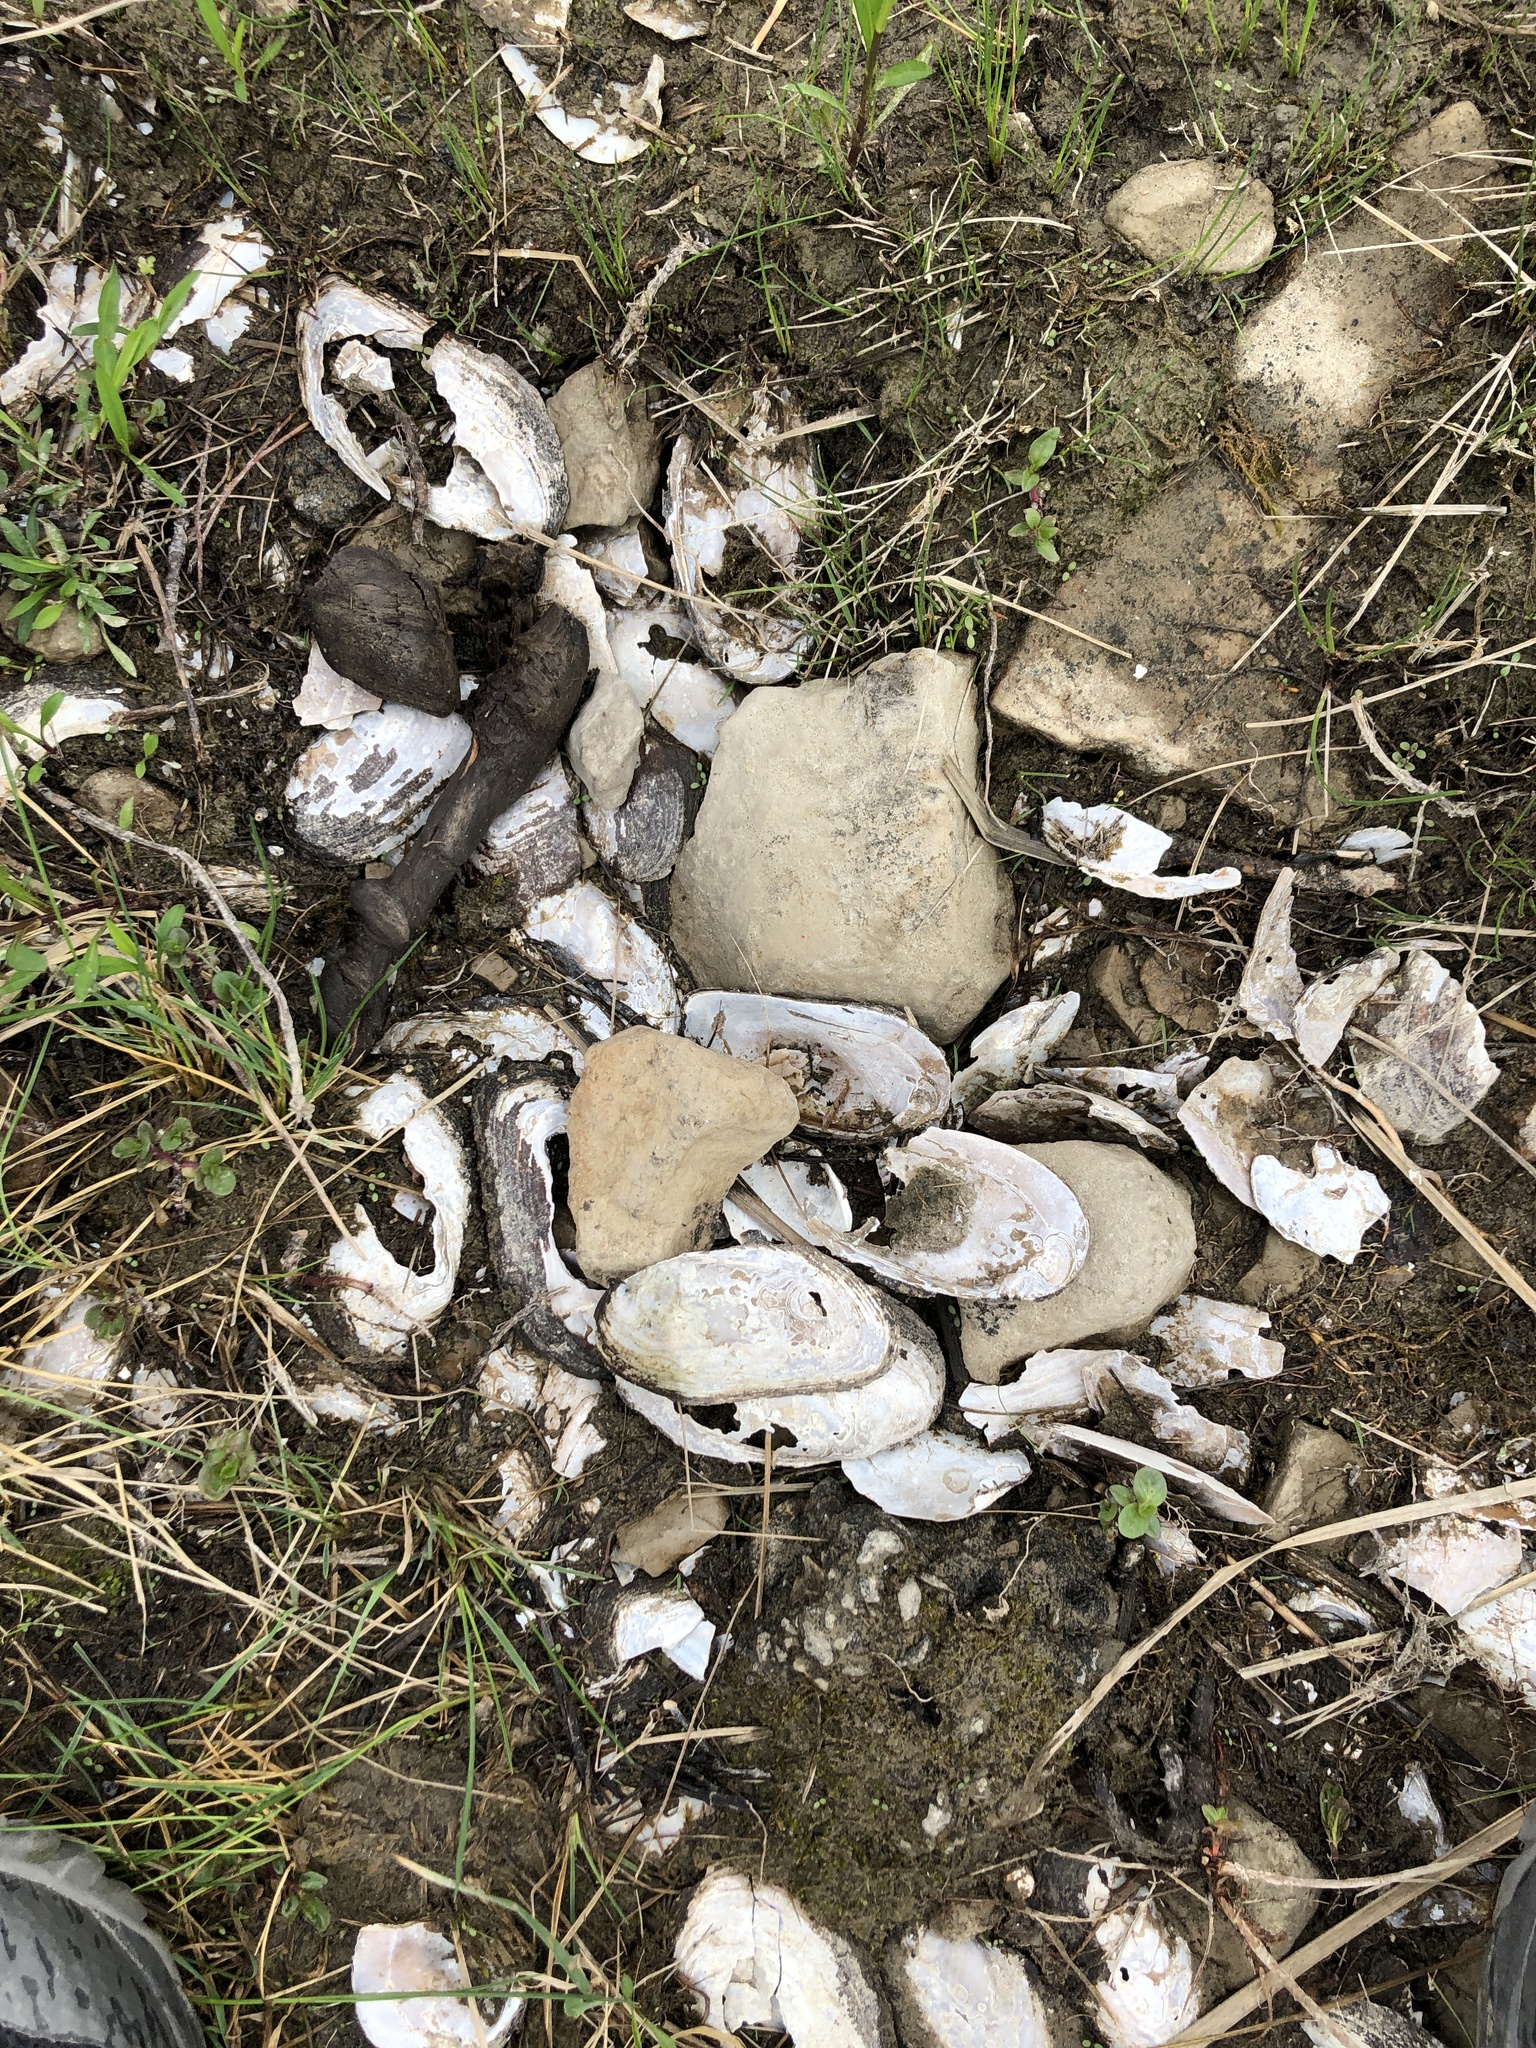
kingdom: Animalia
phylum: Mollusca
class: Bivalvia
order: Unionida
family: Unionidae
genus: Elliptio
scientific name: Elliptio complanata
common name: Eastern elliptio
